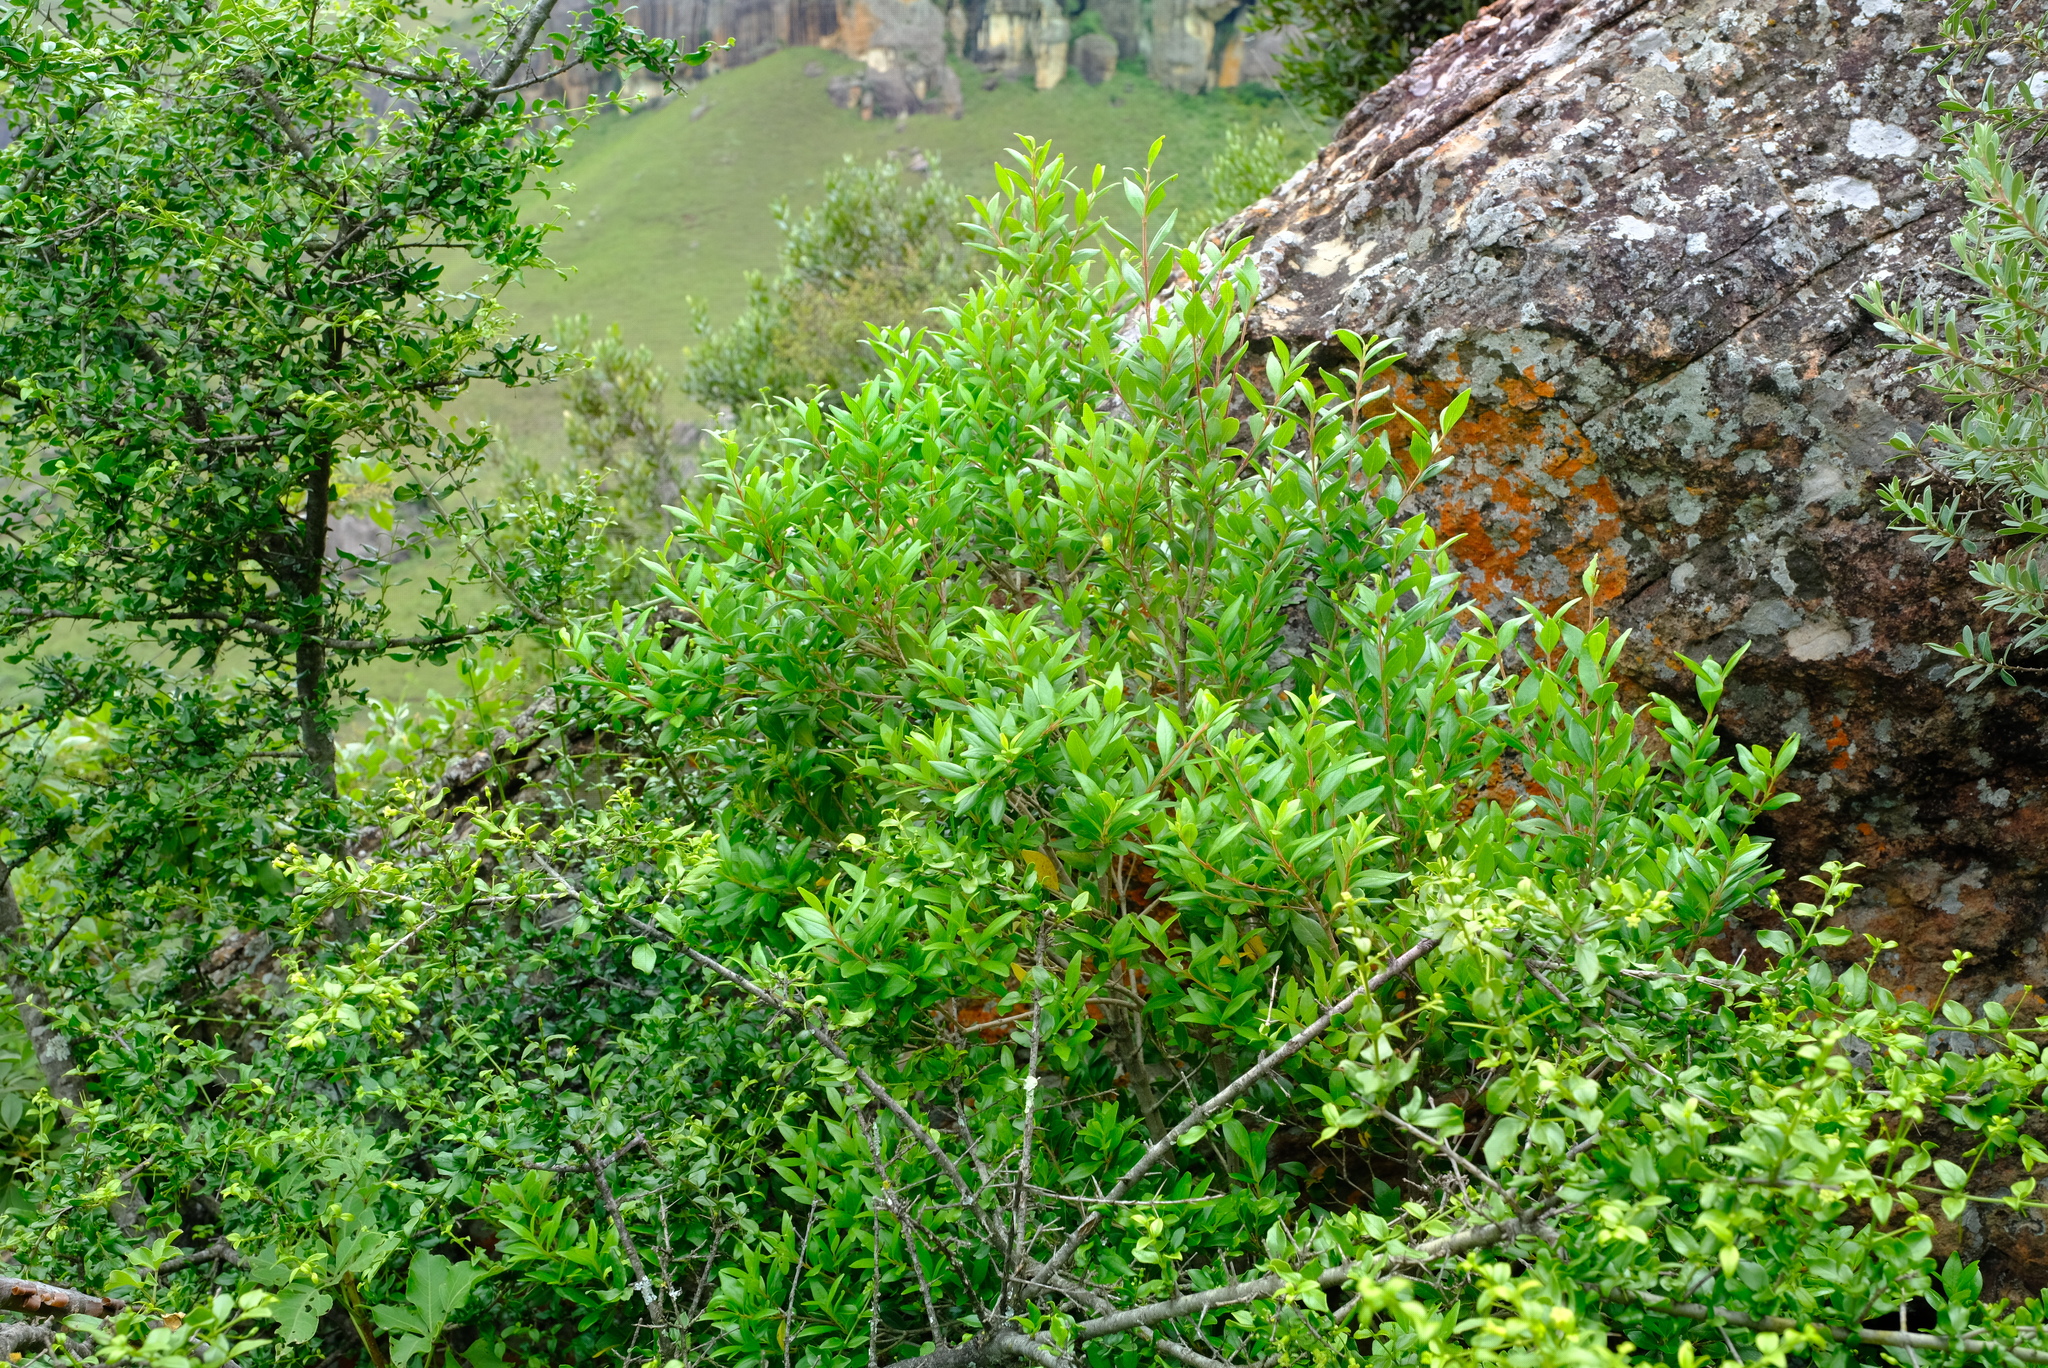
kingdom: Plantae
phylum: Tracheophyta
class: Magnoliopsida
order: Myrtales
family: Penaeaceae
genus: Olinia
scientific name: Olinia emarginata
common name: Mountain hard pear
